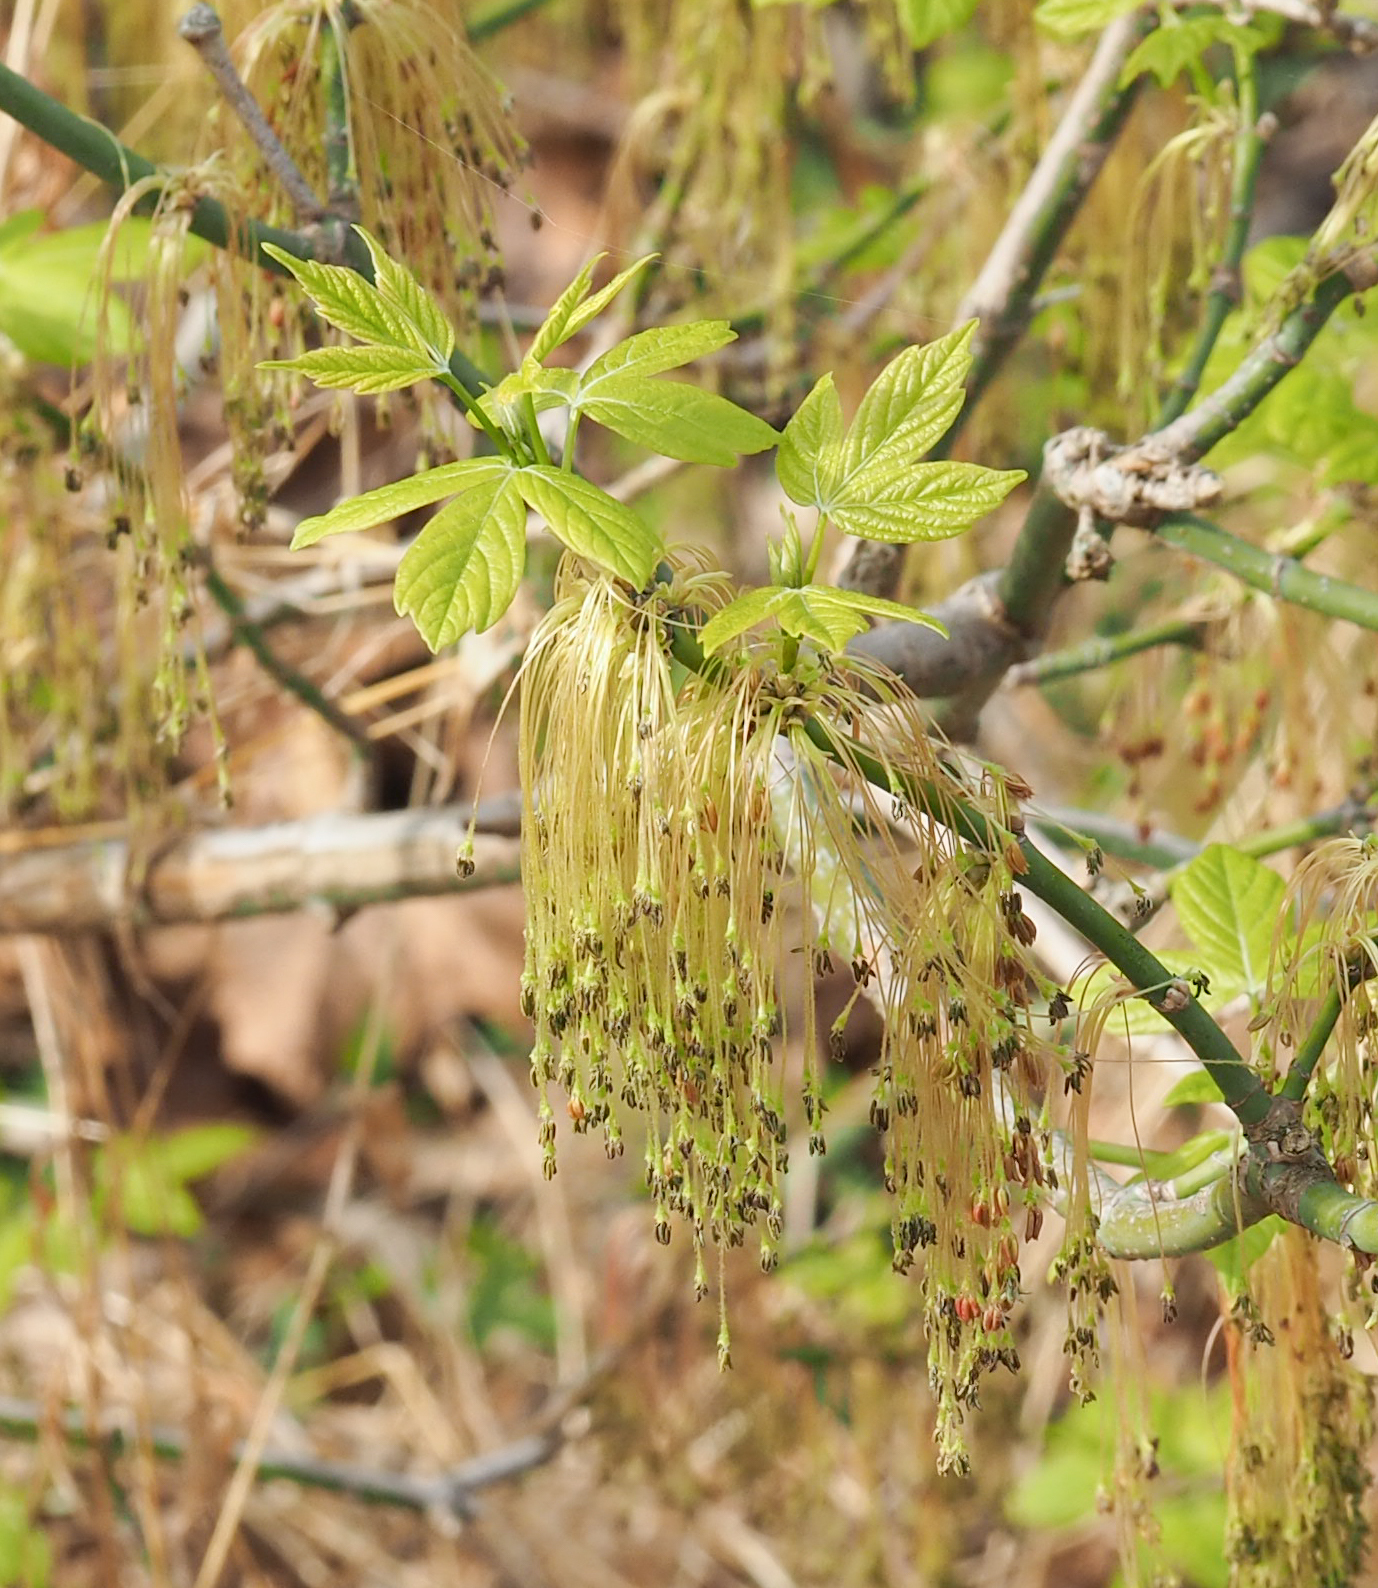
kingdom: Plantae
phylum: Tracheophyta
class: Magnoliopsida
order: Sapindales
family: Sapindaceae
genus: Acer
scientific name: Acer negundo
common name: Ashleaf maple
